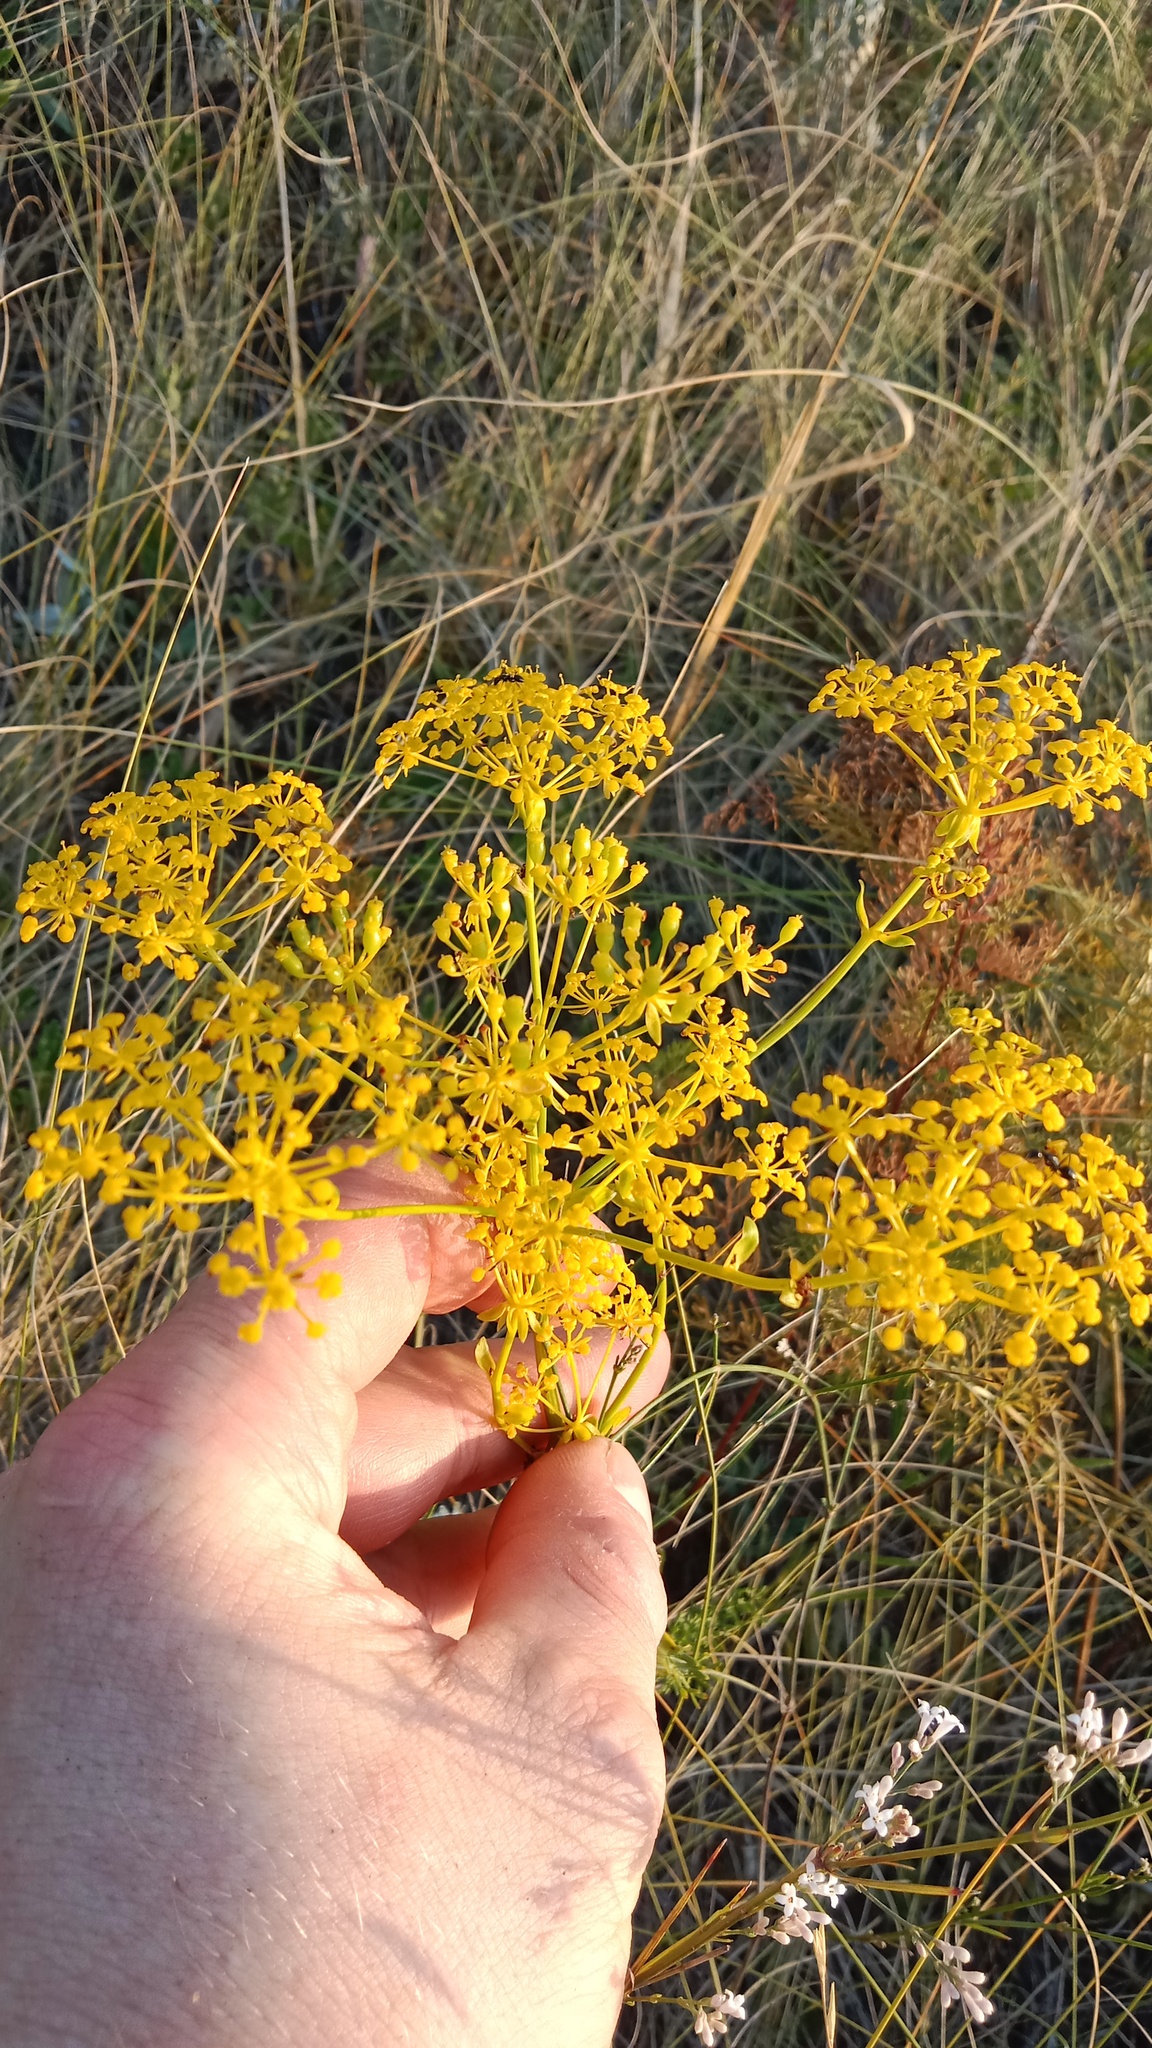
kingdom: Plantae
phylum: Tracheophyta
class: Magnoliopsida
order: Apiales
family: Apiaceae
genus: Ferulago
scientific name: Ferulago galbanifera
